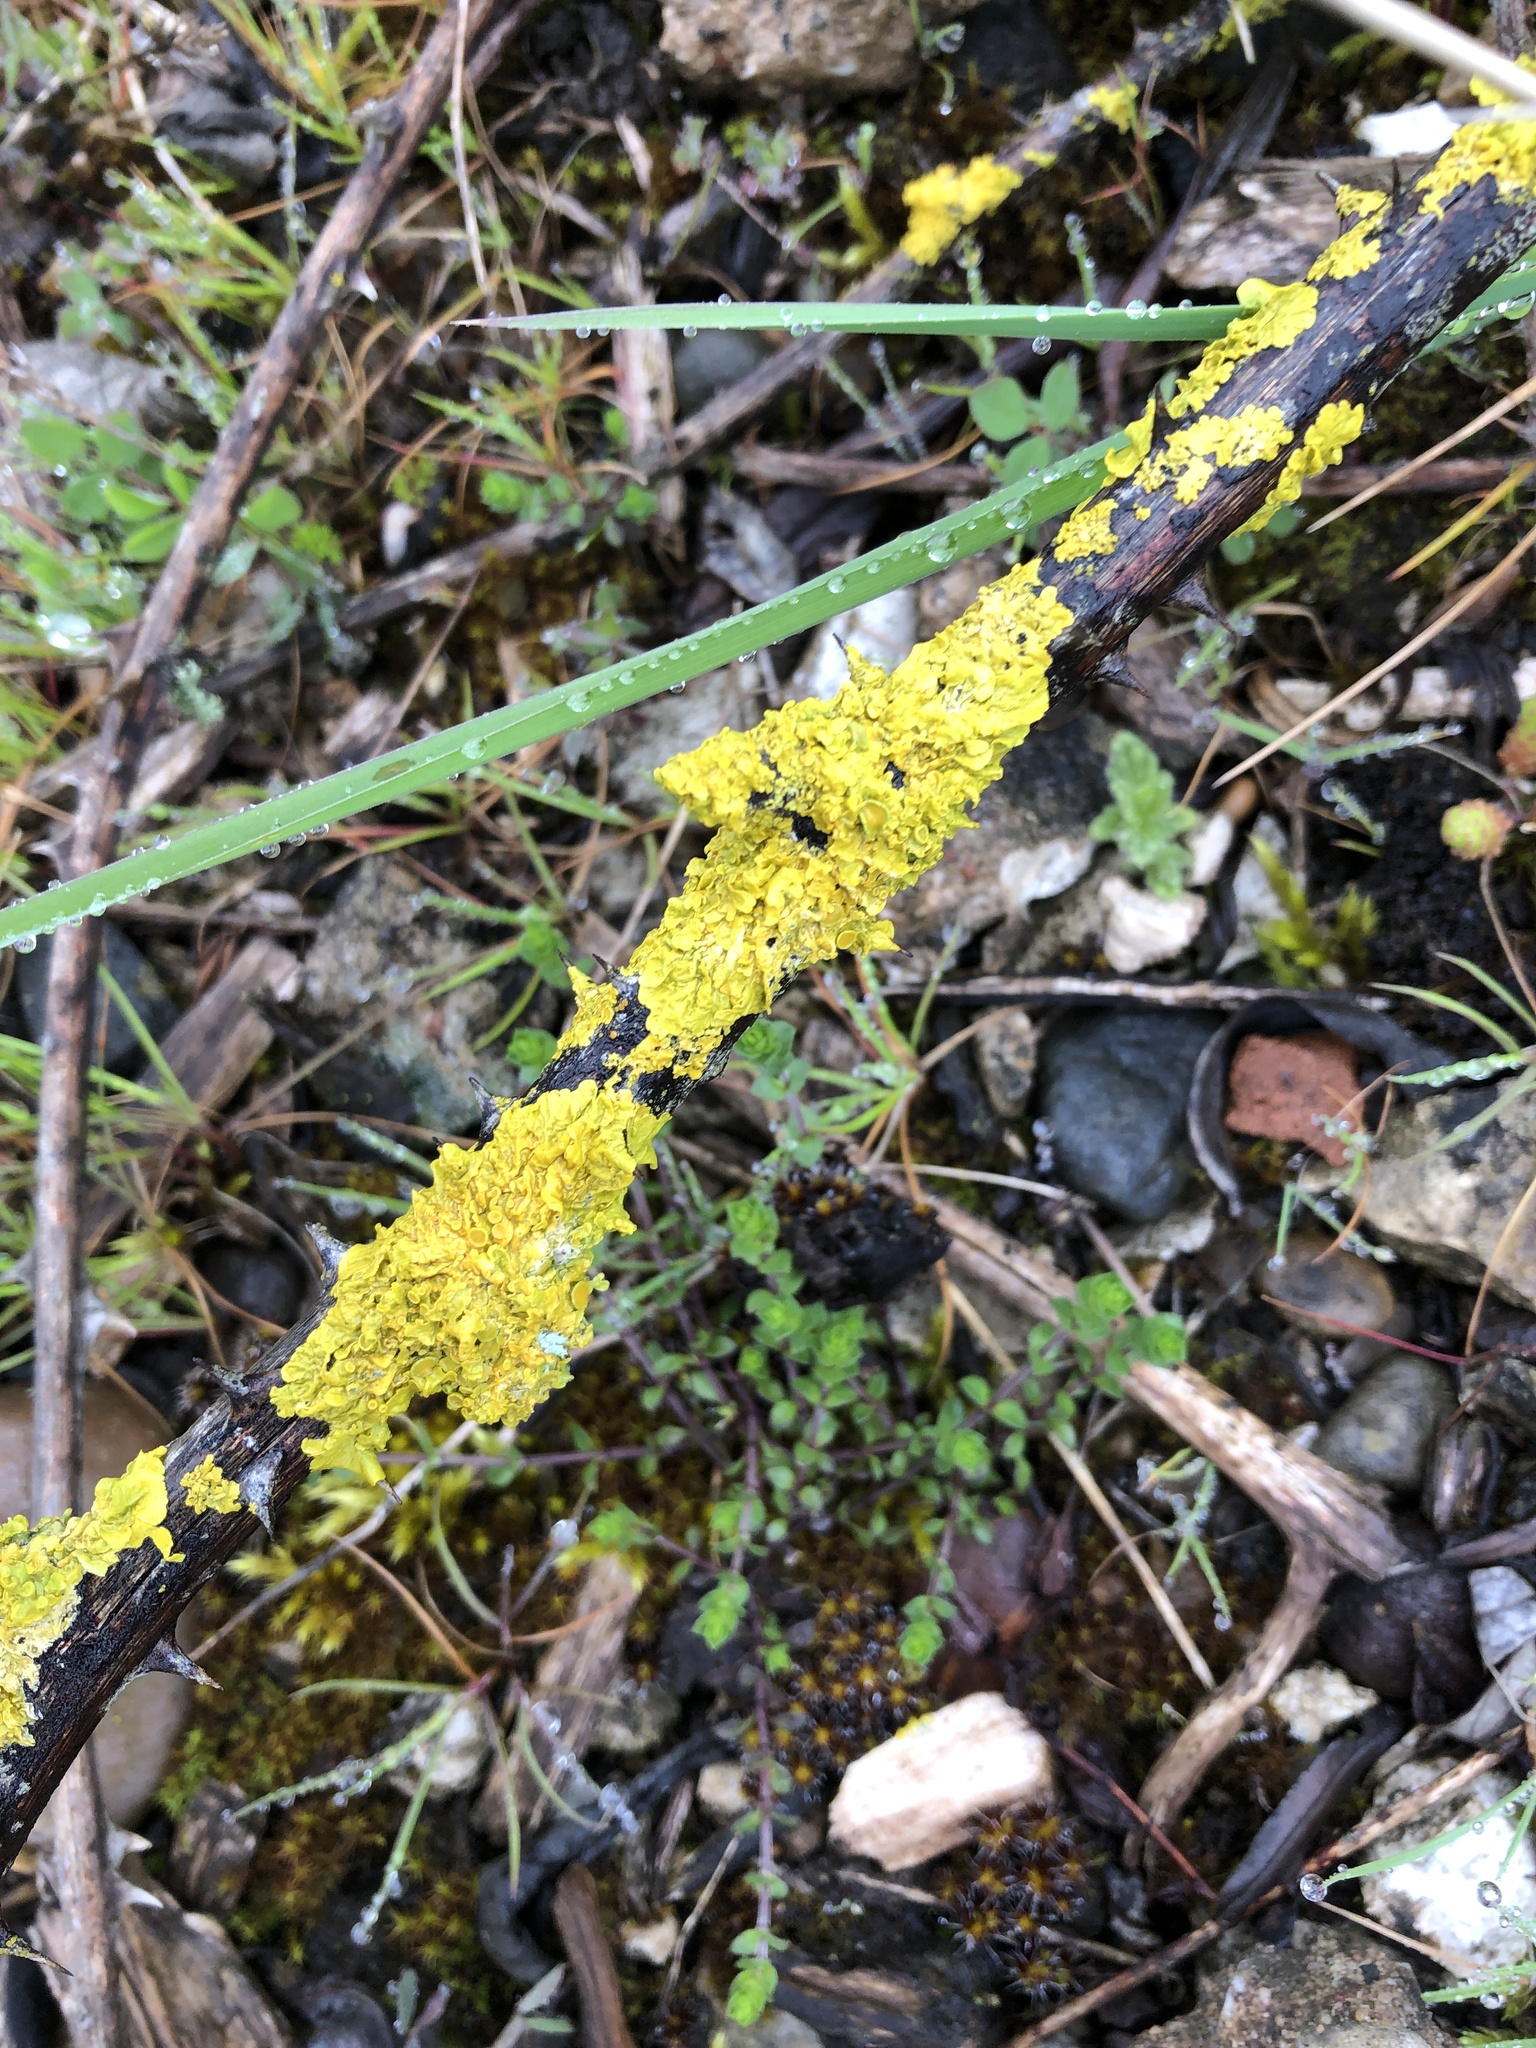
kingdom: Fungi
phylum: Ascomycota
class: Lecanoromycetes
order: Teloschistales
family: Teloschistaceae
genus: Xanthoria
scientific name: Xanthoria parietina
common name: Common orange lichen
